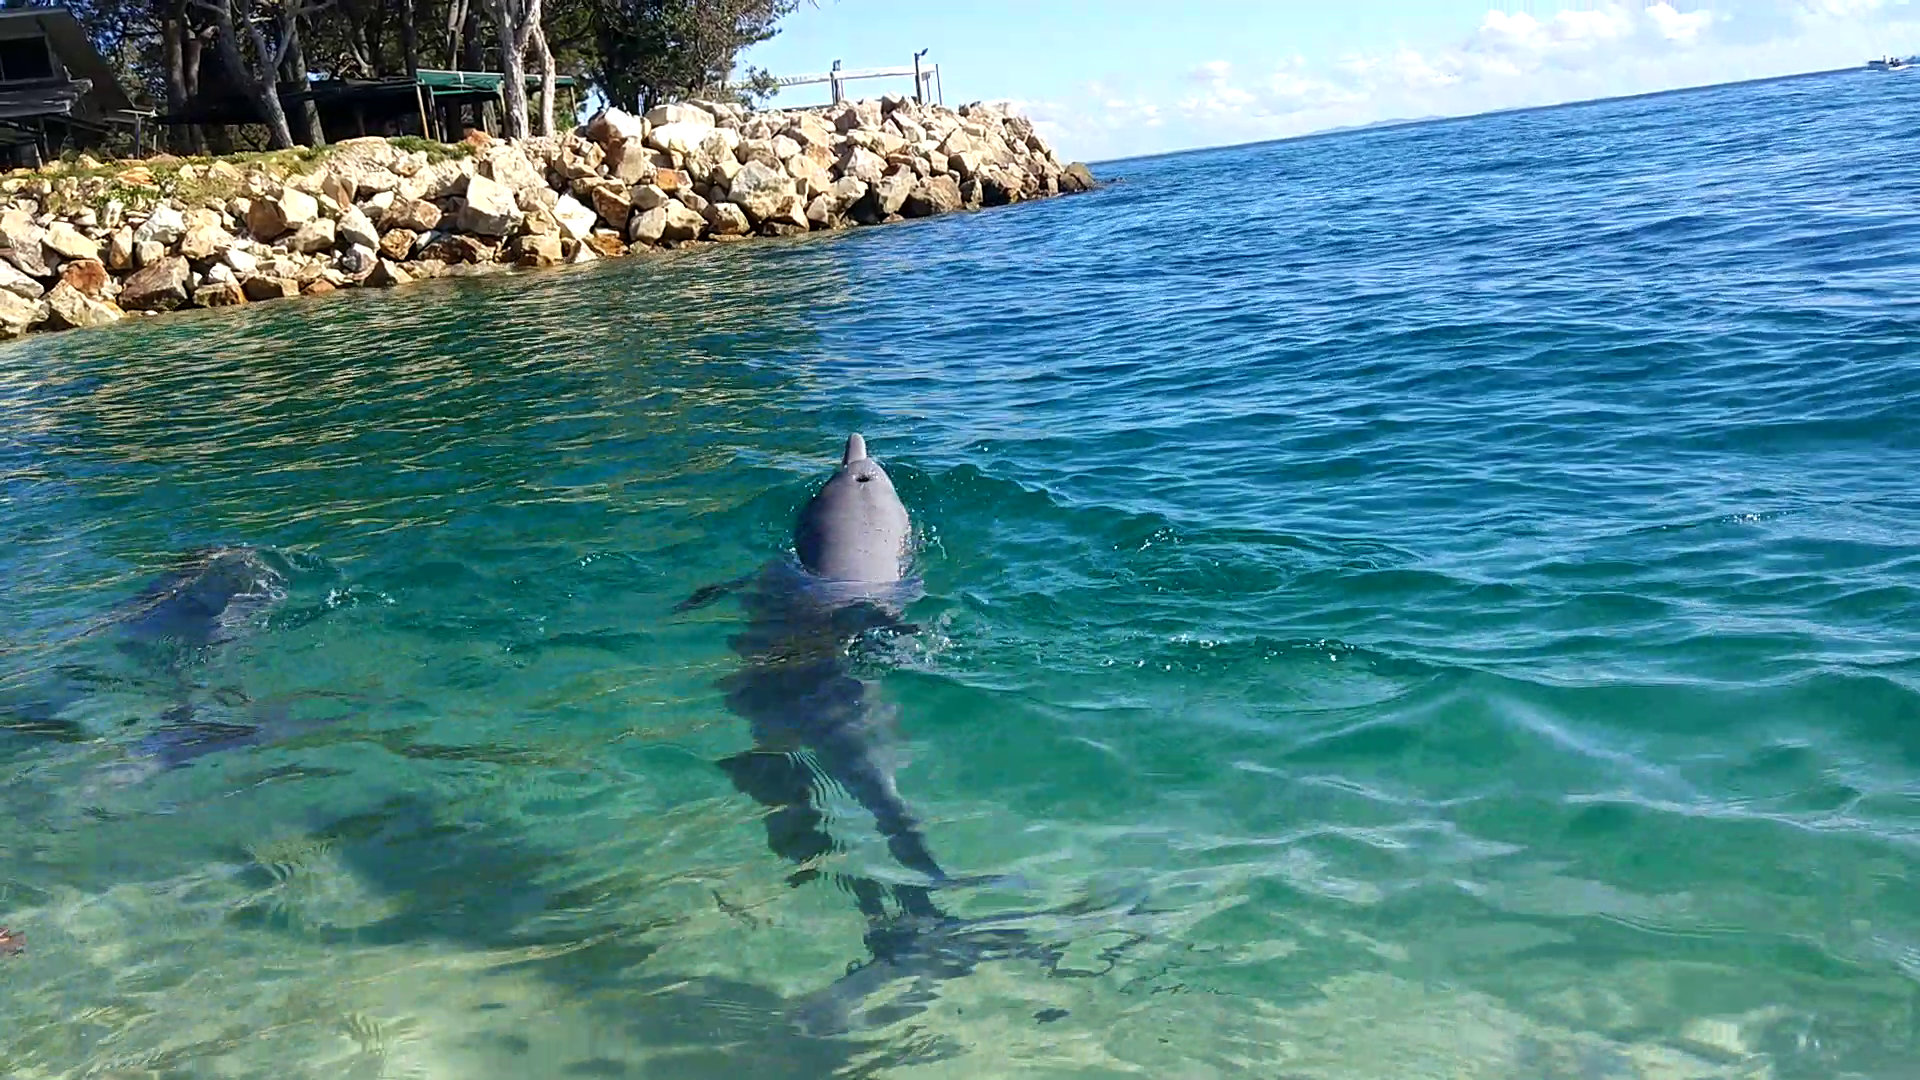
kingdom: Animalia
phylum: Chordata
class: Mammalia
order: Cetacea
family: Delphinidae
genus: Sousa
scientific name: Sousa sahulensis
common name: Australian humpback dolphin
